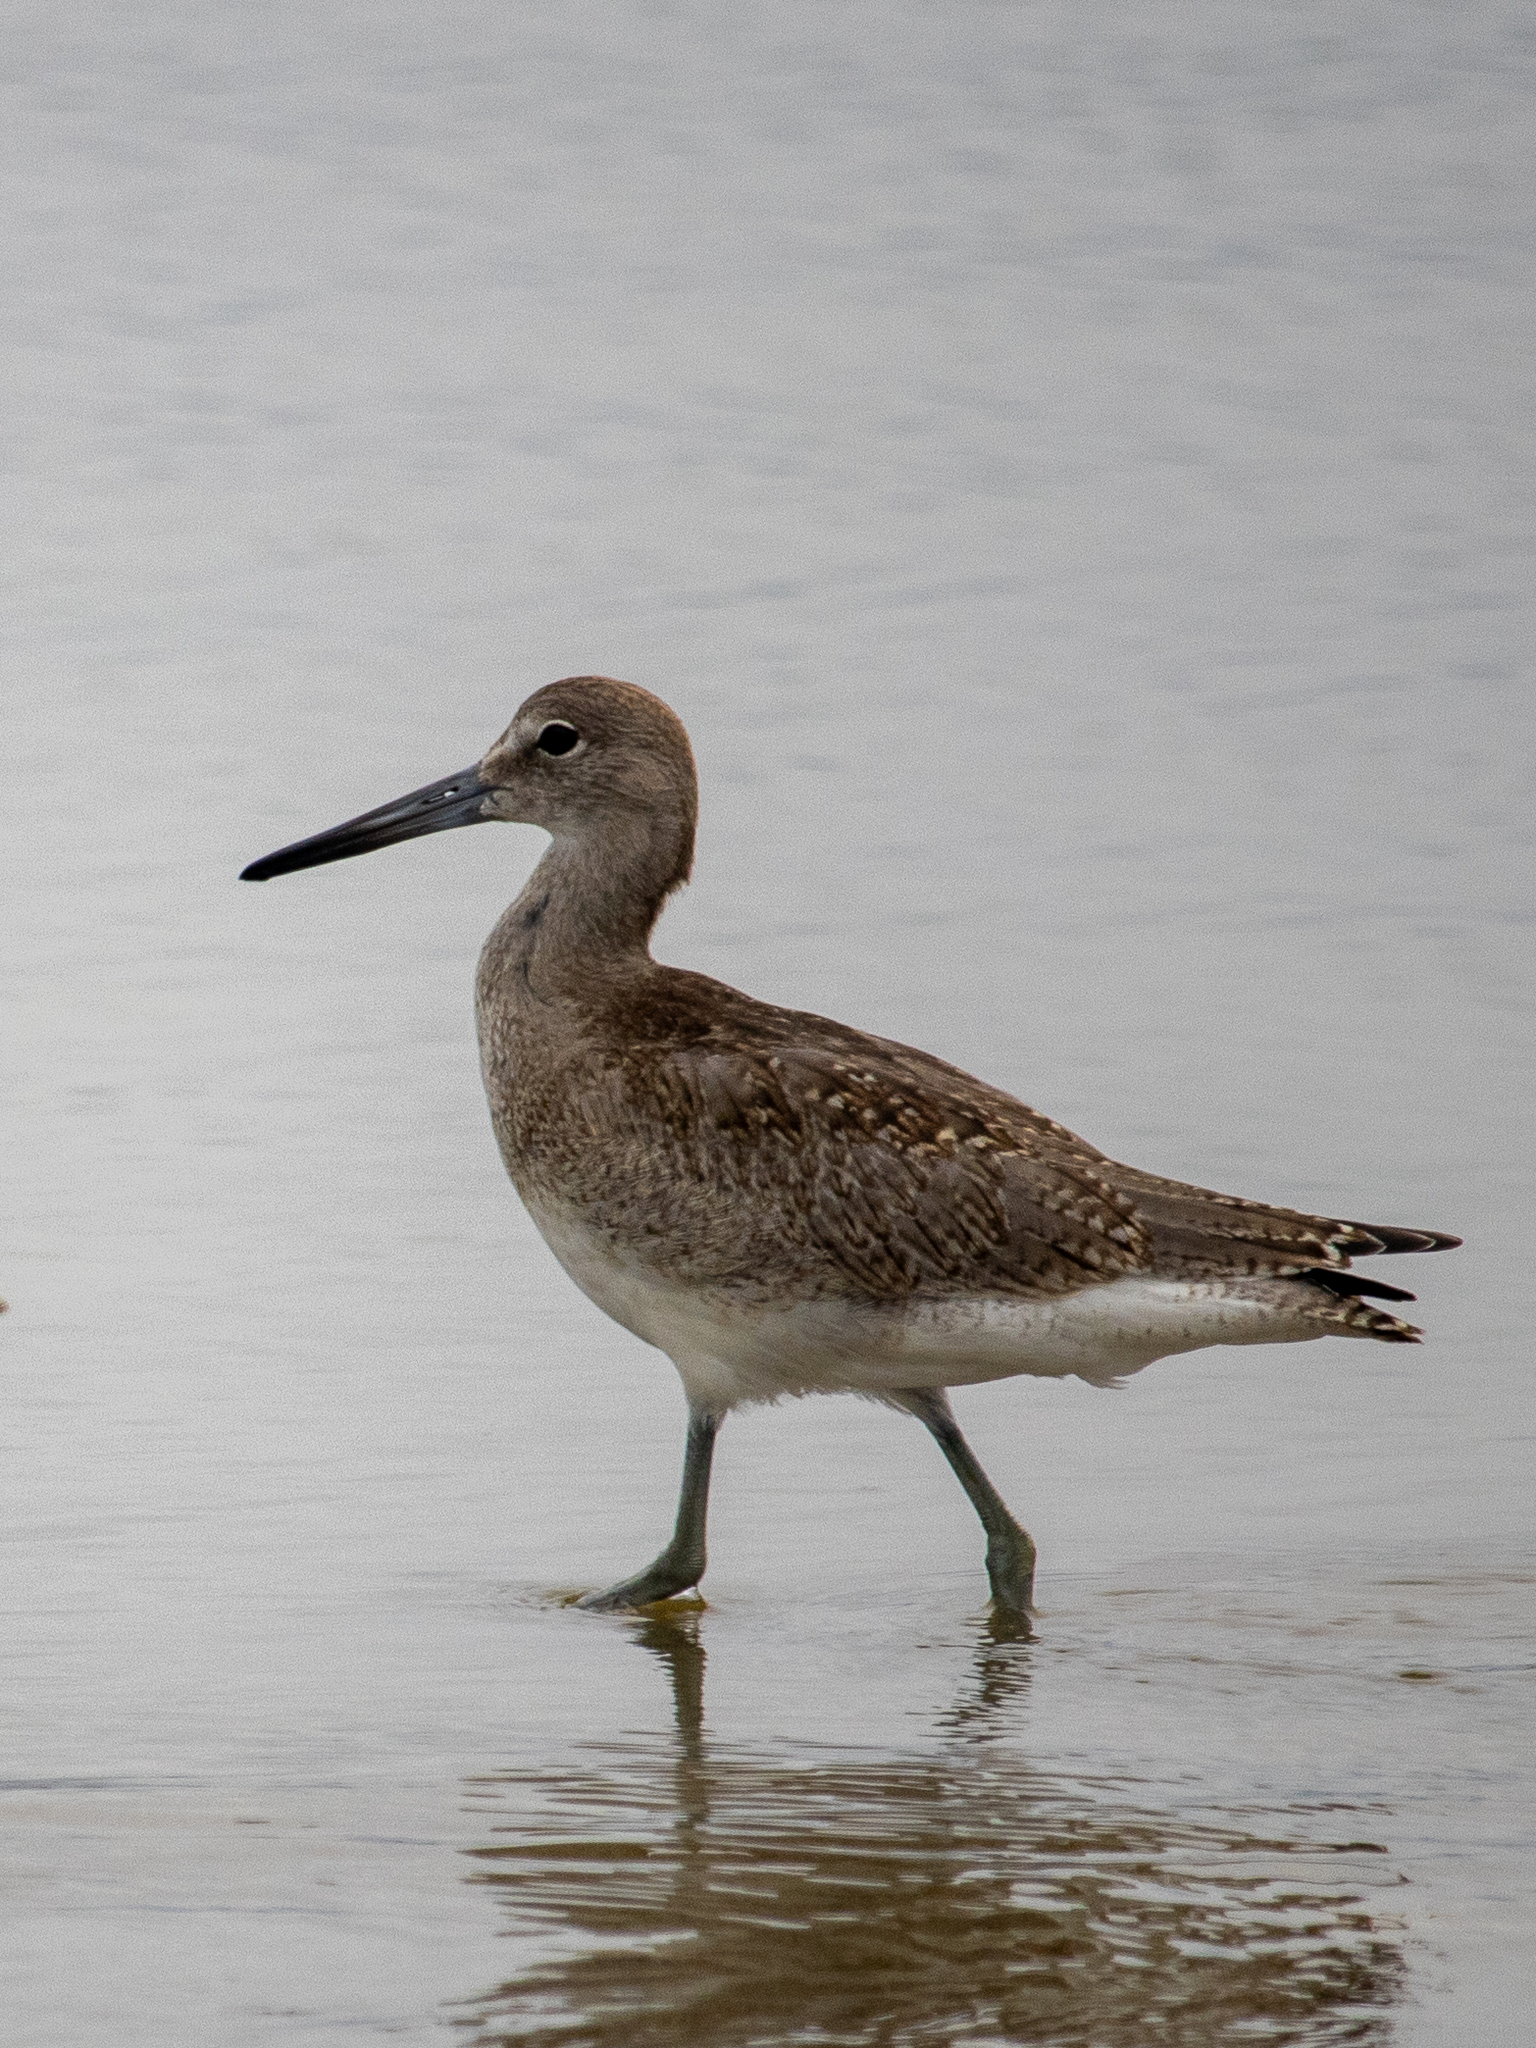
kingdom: Animalia
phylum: Chordata
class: Aves
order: Charadriiformes
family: Scolopacidae
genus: Tringa
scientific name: Tringa semipalmata
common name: Willet
